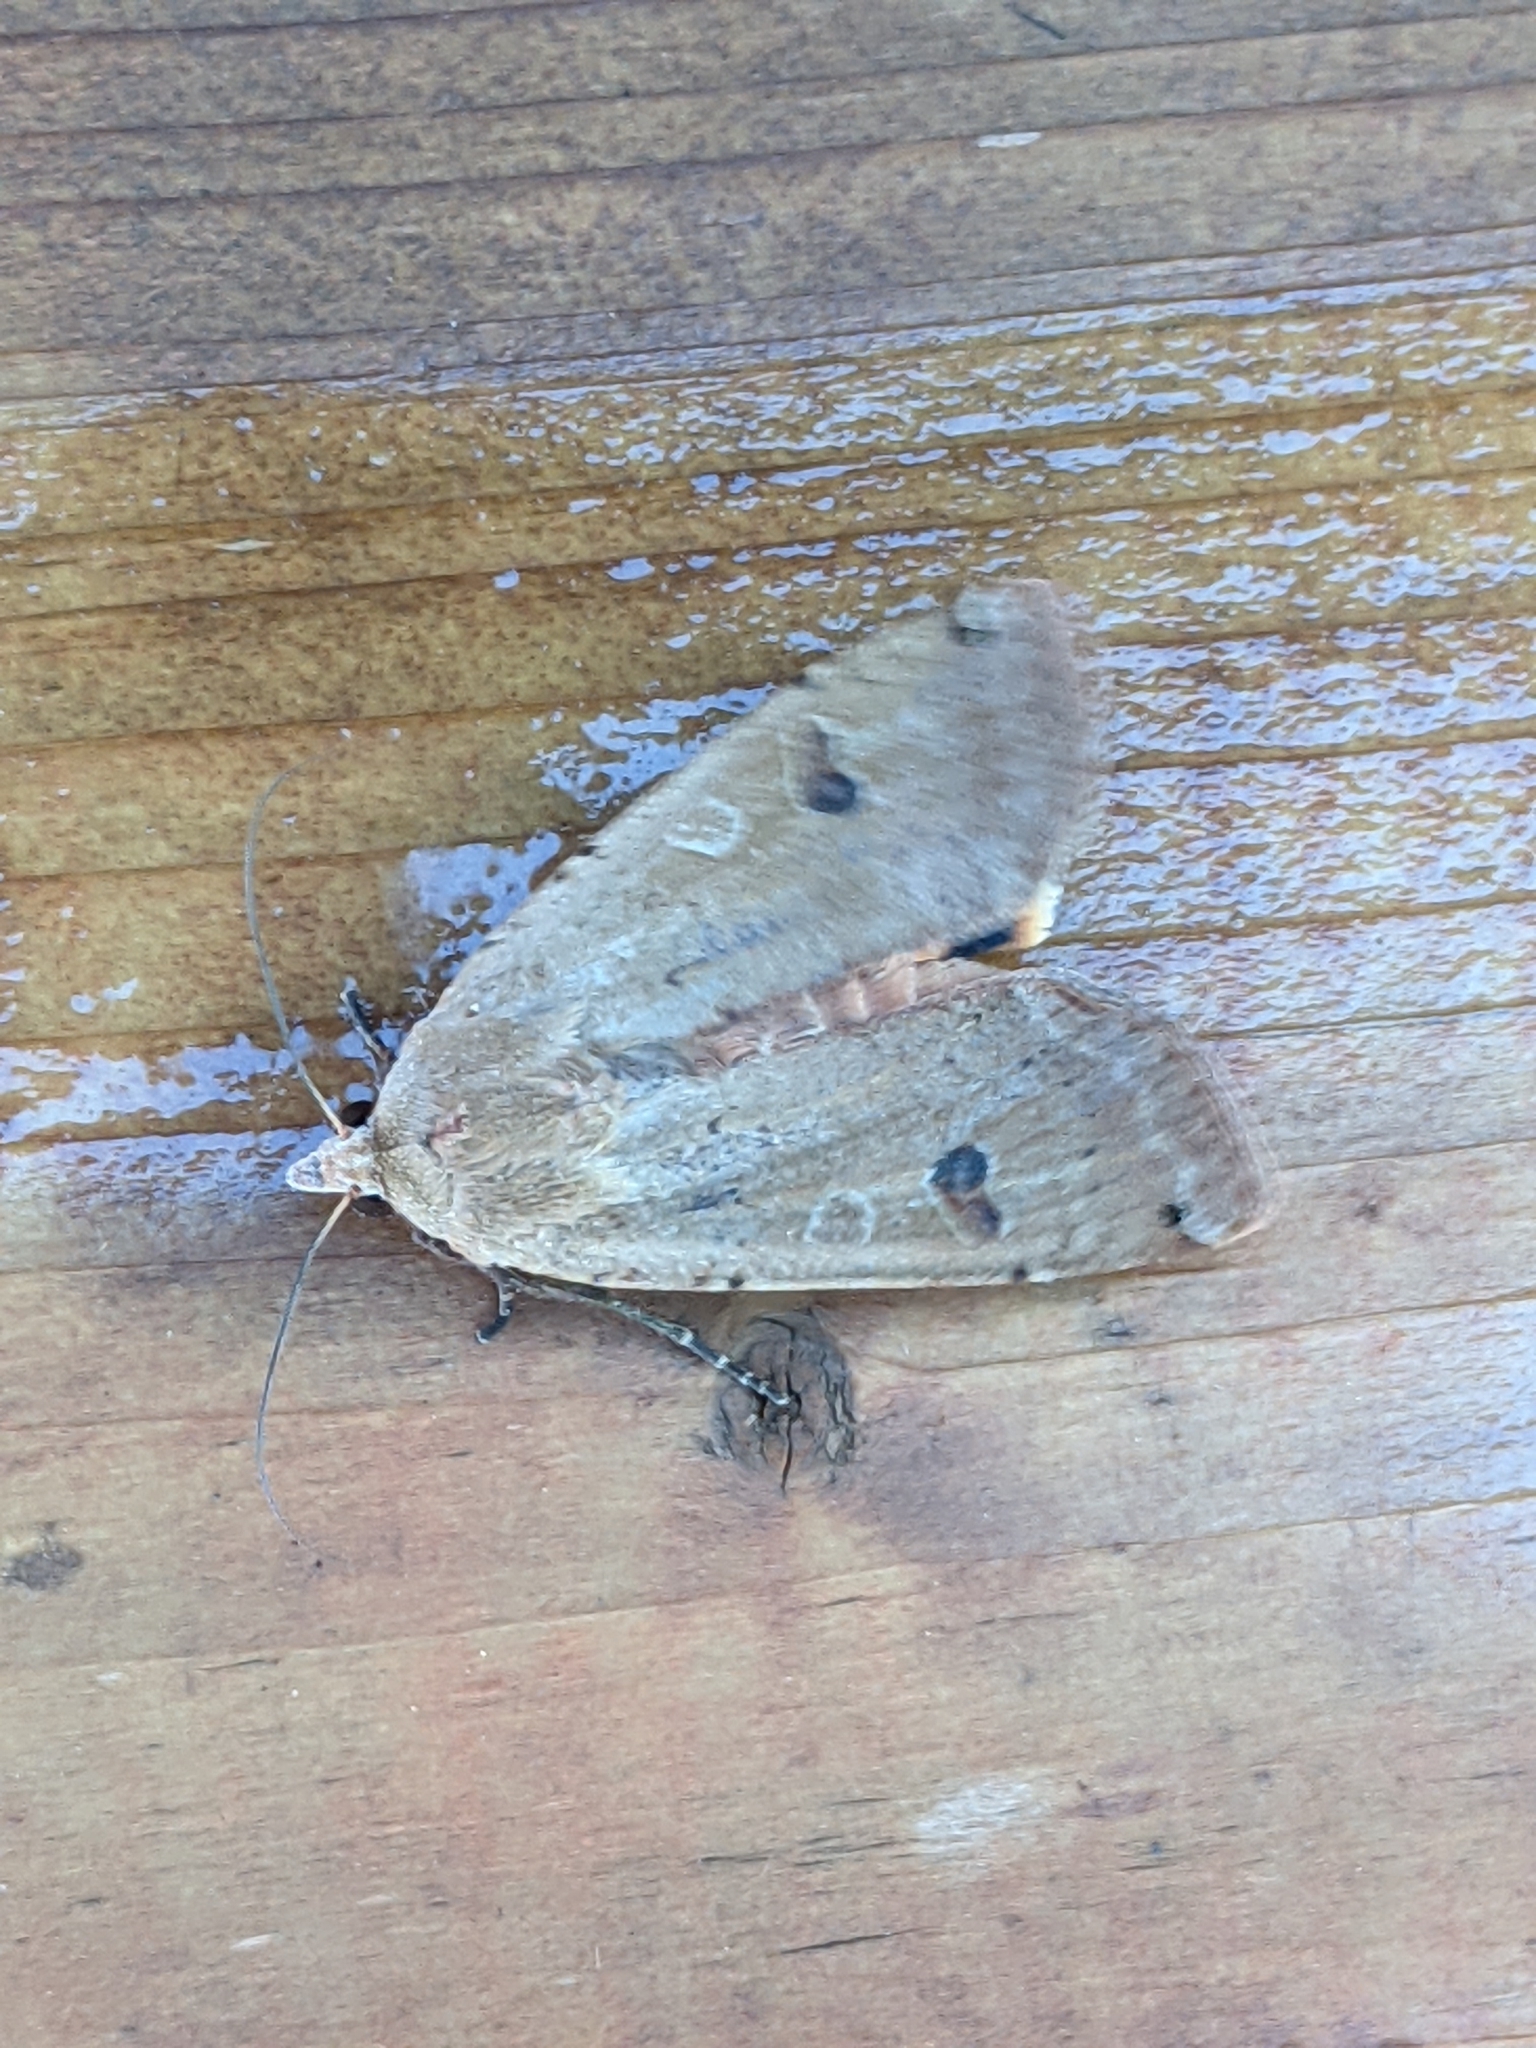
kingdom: Animalia
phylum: Arthropoda
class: Insecta
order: Lepidoptera
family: Noctuidae
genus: Noctua
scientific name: Noctua pronuba
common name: Large yellow underwing
